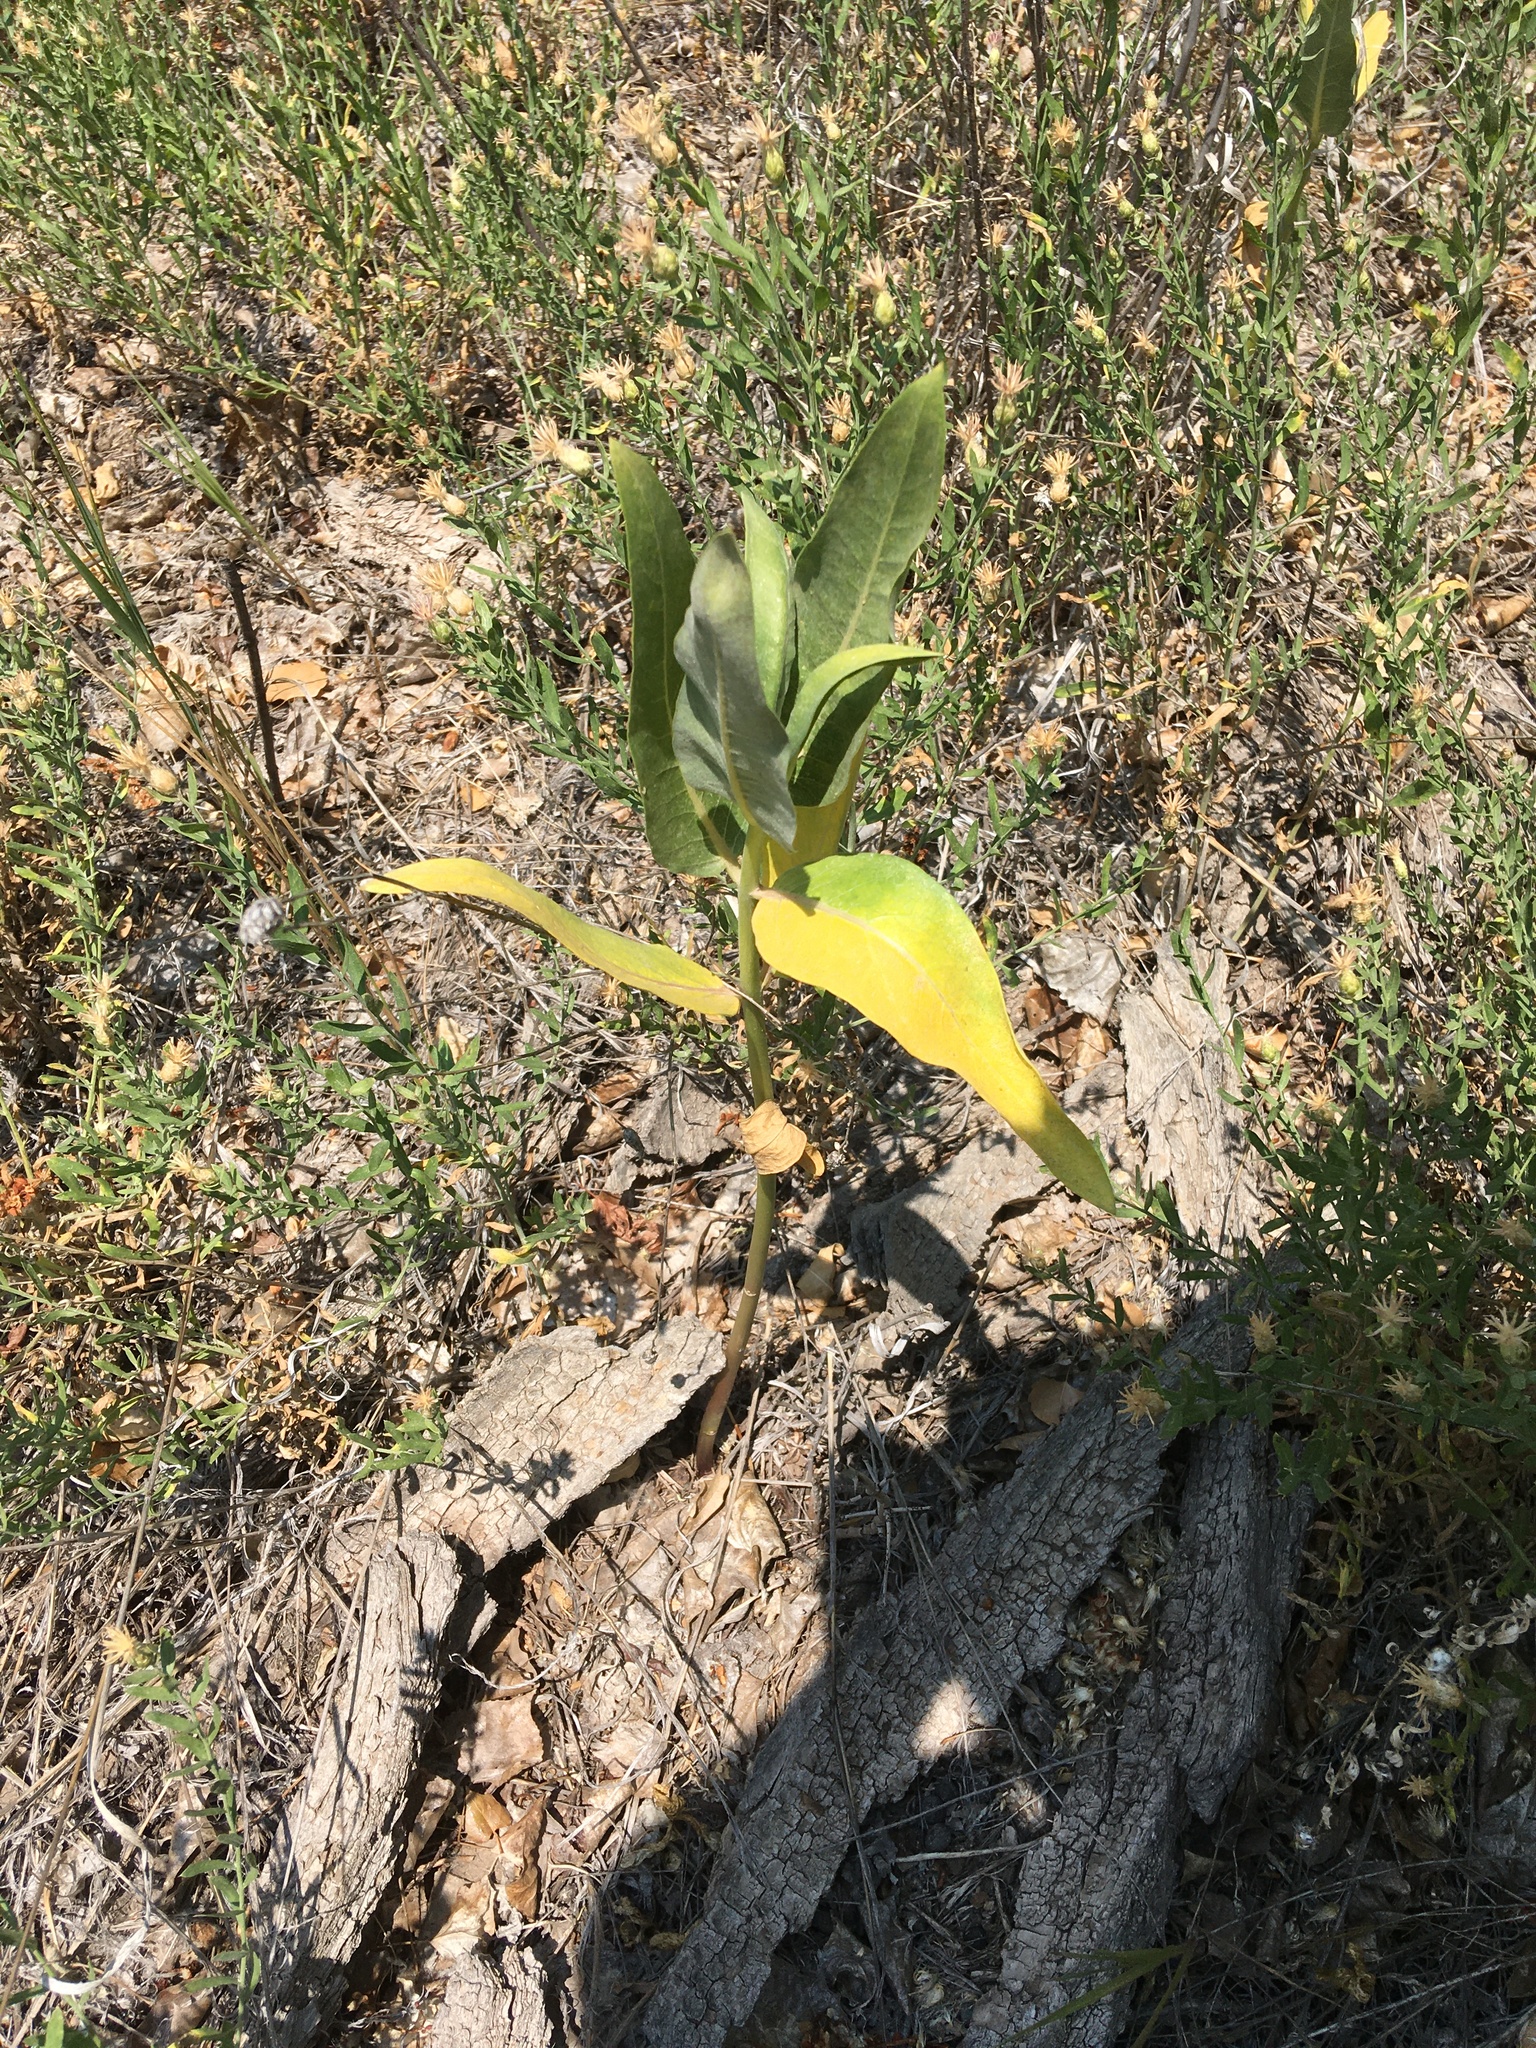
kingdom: Plantae
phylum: Tracheophyta
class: Magnoliopsida
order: Gentianales
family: Apocynaceae
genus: Asclepias
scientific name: Asclepias speciosa
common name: Showy milkweed
